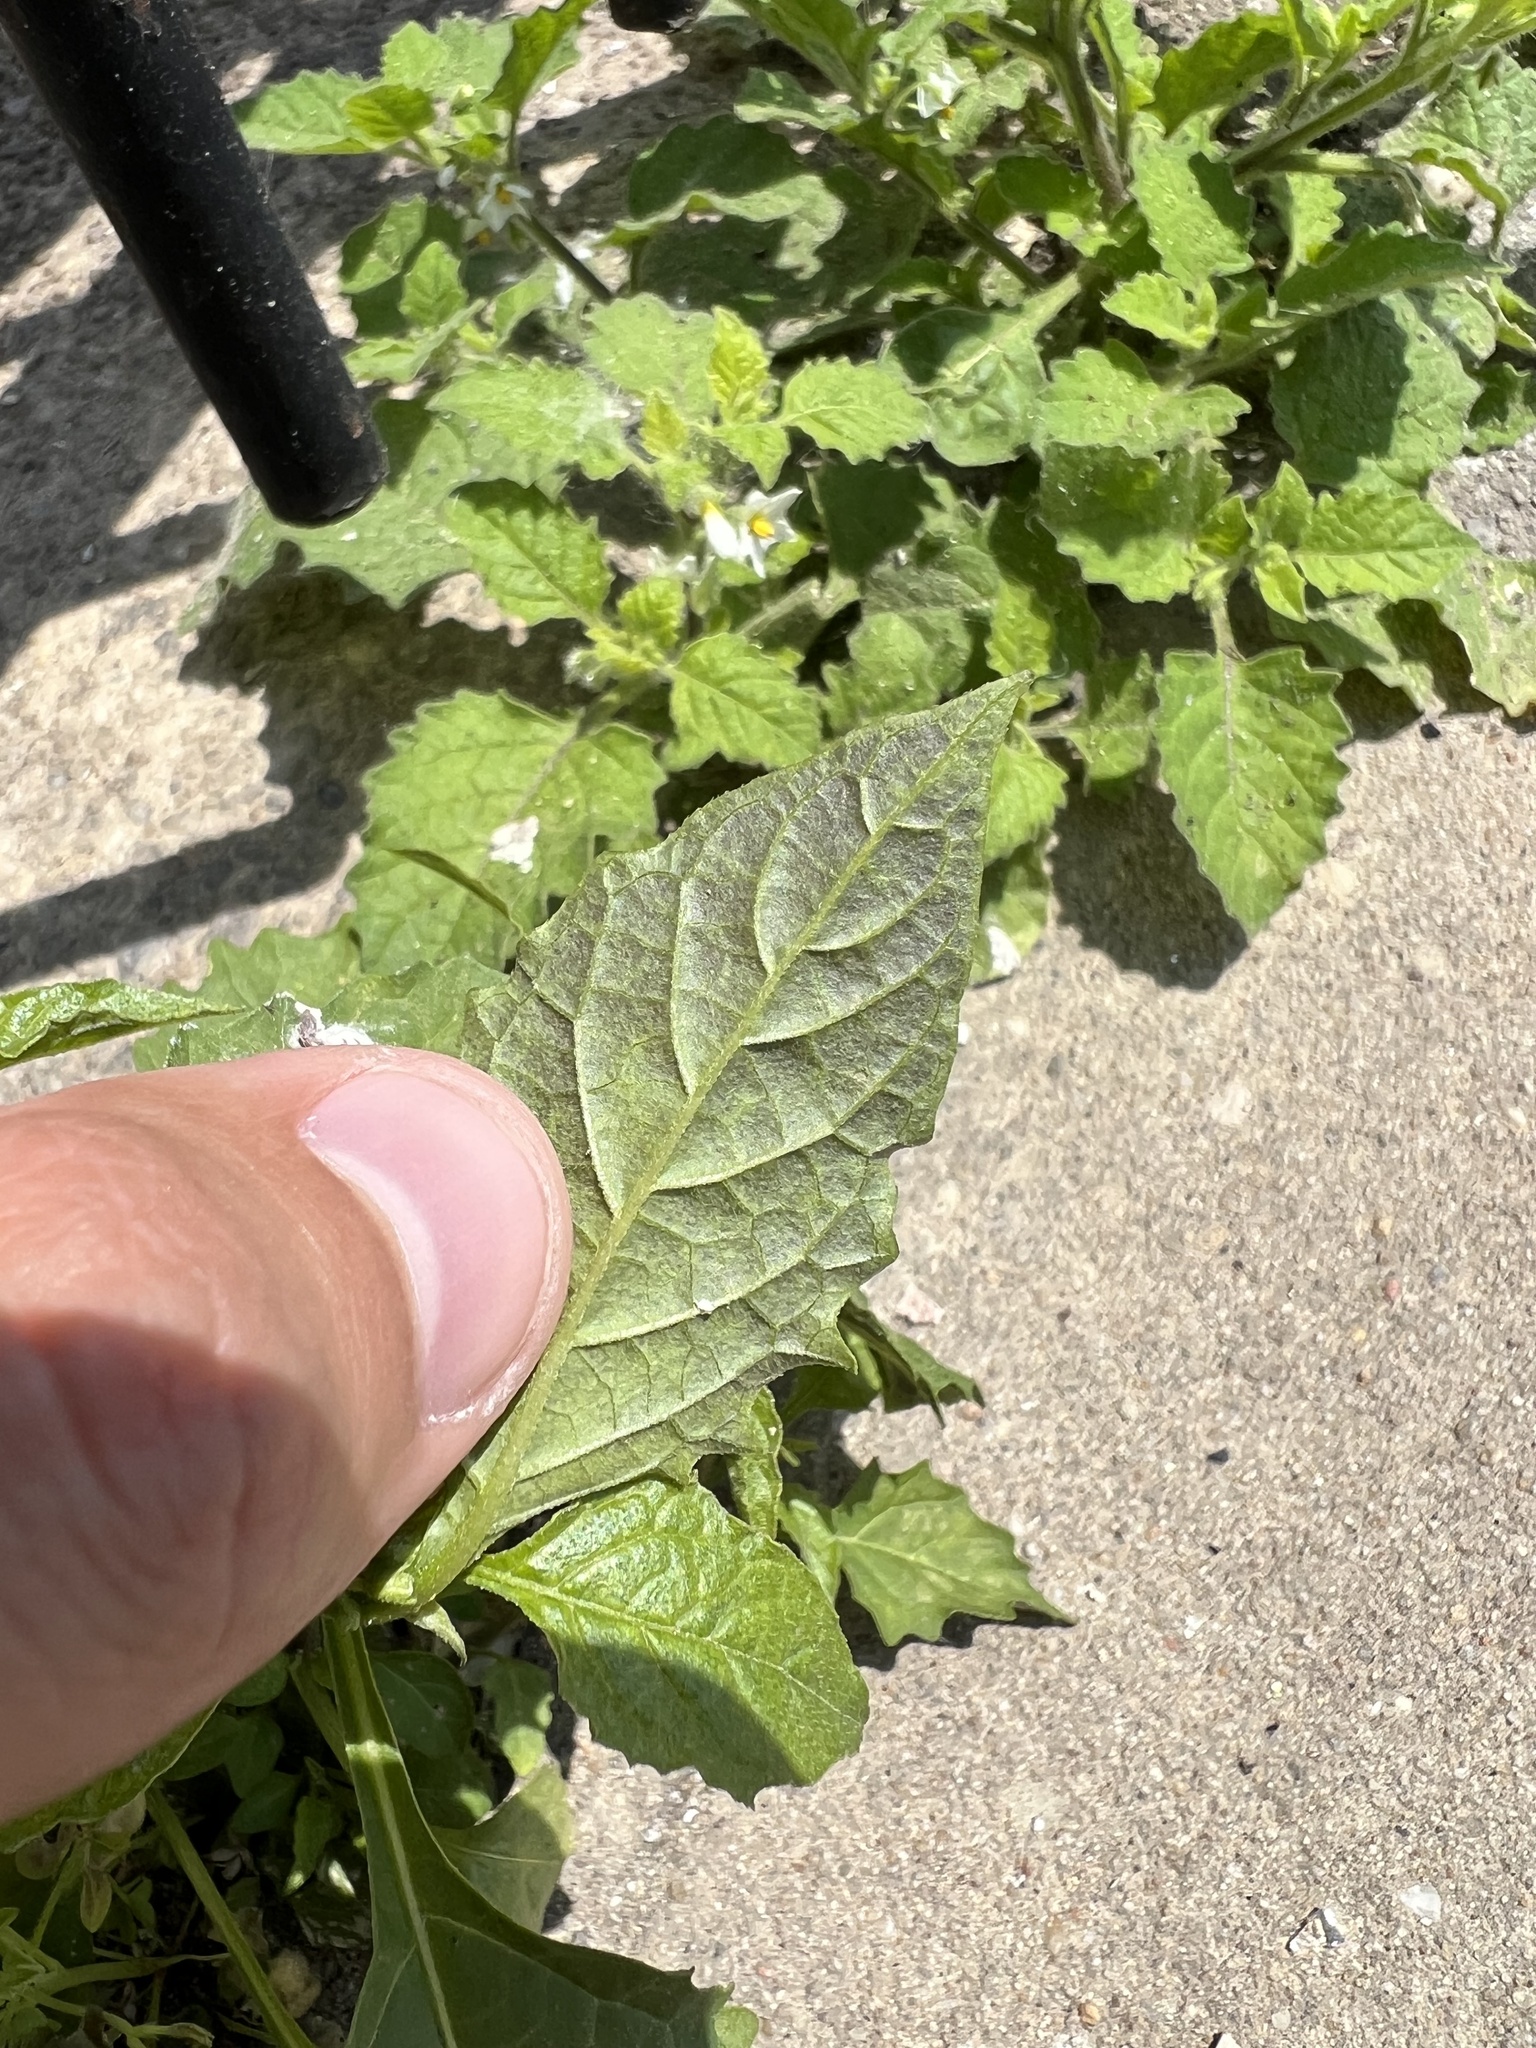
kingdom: Plantae
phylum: Tracheophyta
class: Magnoliopsida
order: Solanales
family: Solanaceae
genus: Solanum
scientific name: Solanum emulans
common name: Eastern black nightshade
